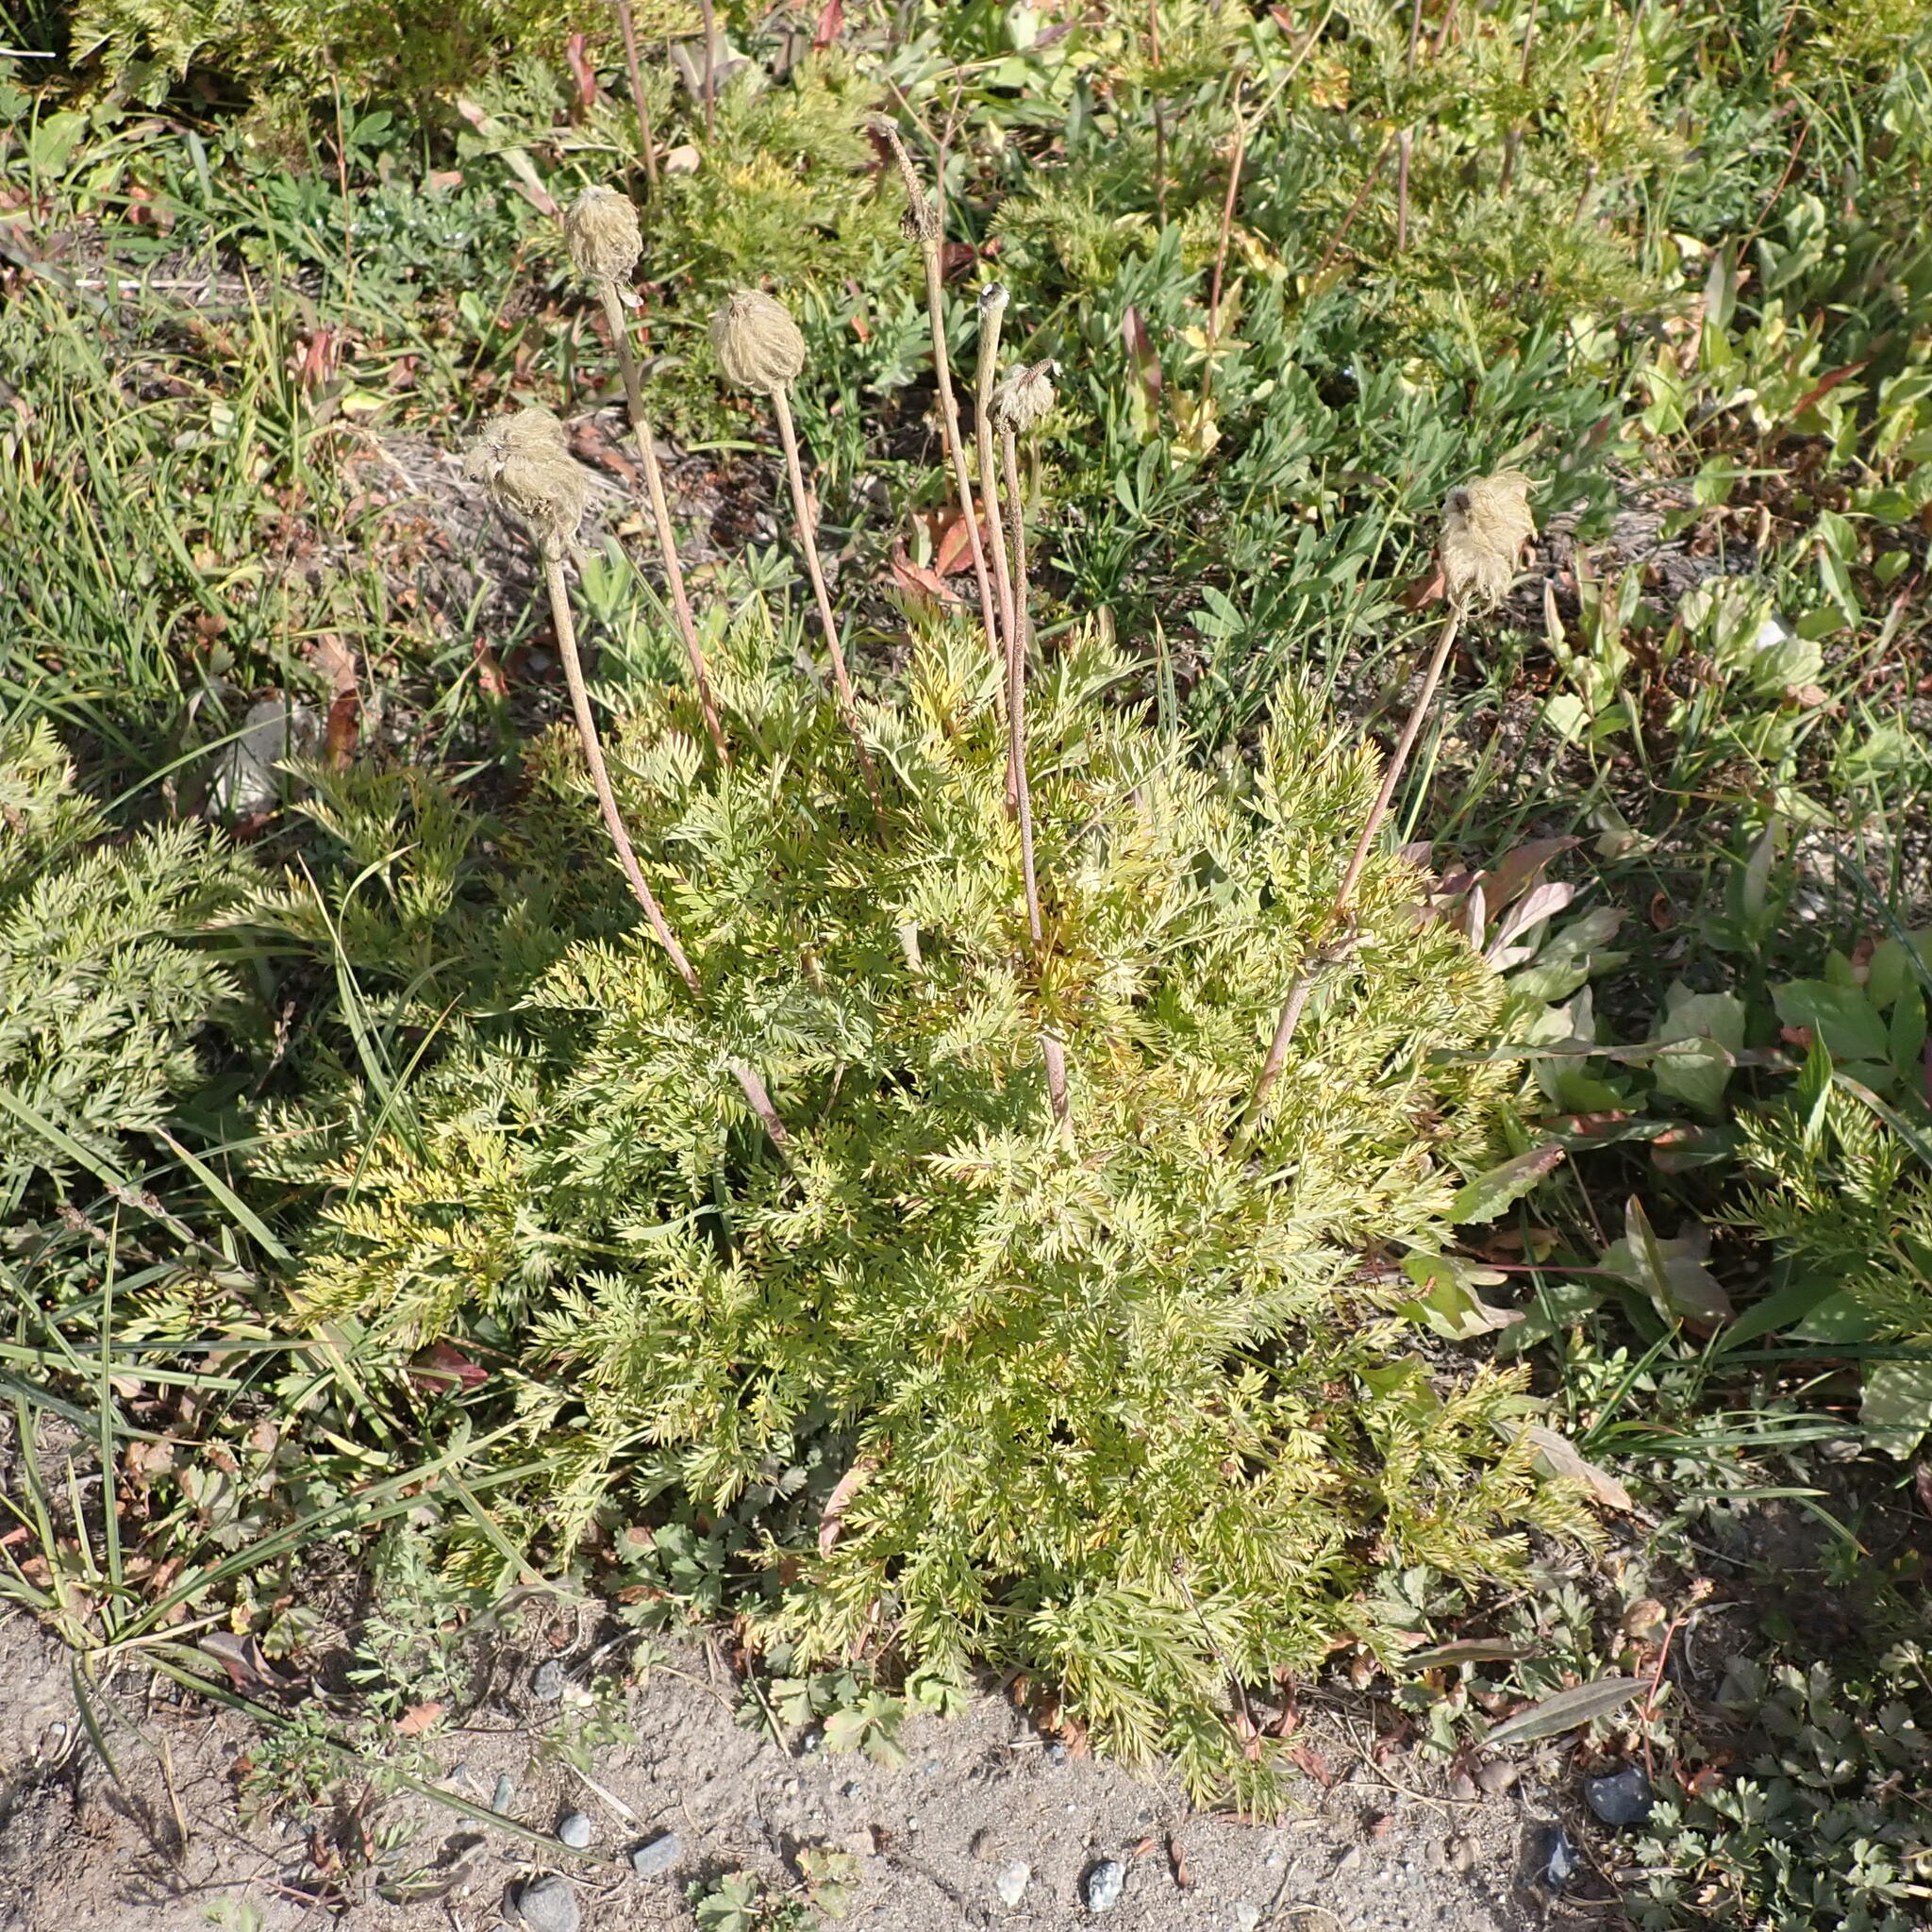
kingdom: Plantae
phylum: Tracheophyta
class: Magnoliopsida
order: Ranunculales
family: Ranunculaceae
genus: Pulsatilla
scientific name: Pulsatilla occidentalis
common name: Mountain pasqueflower
